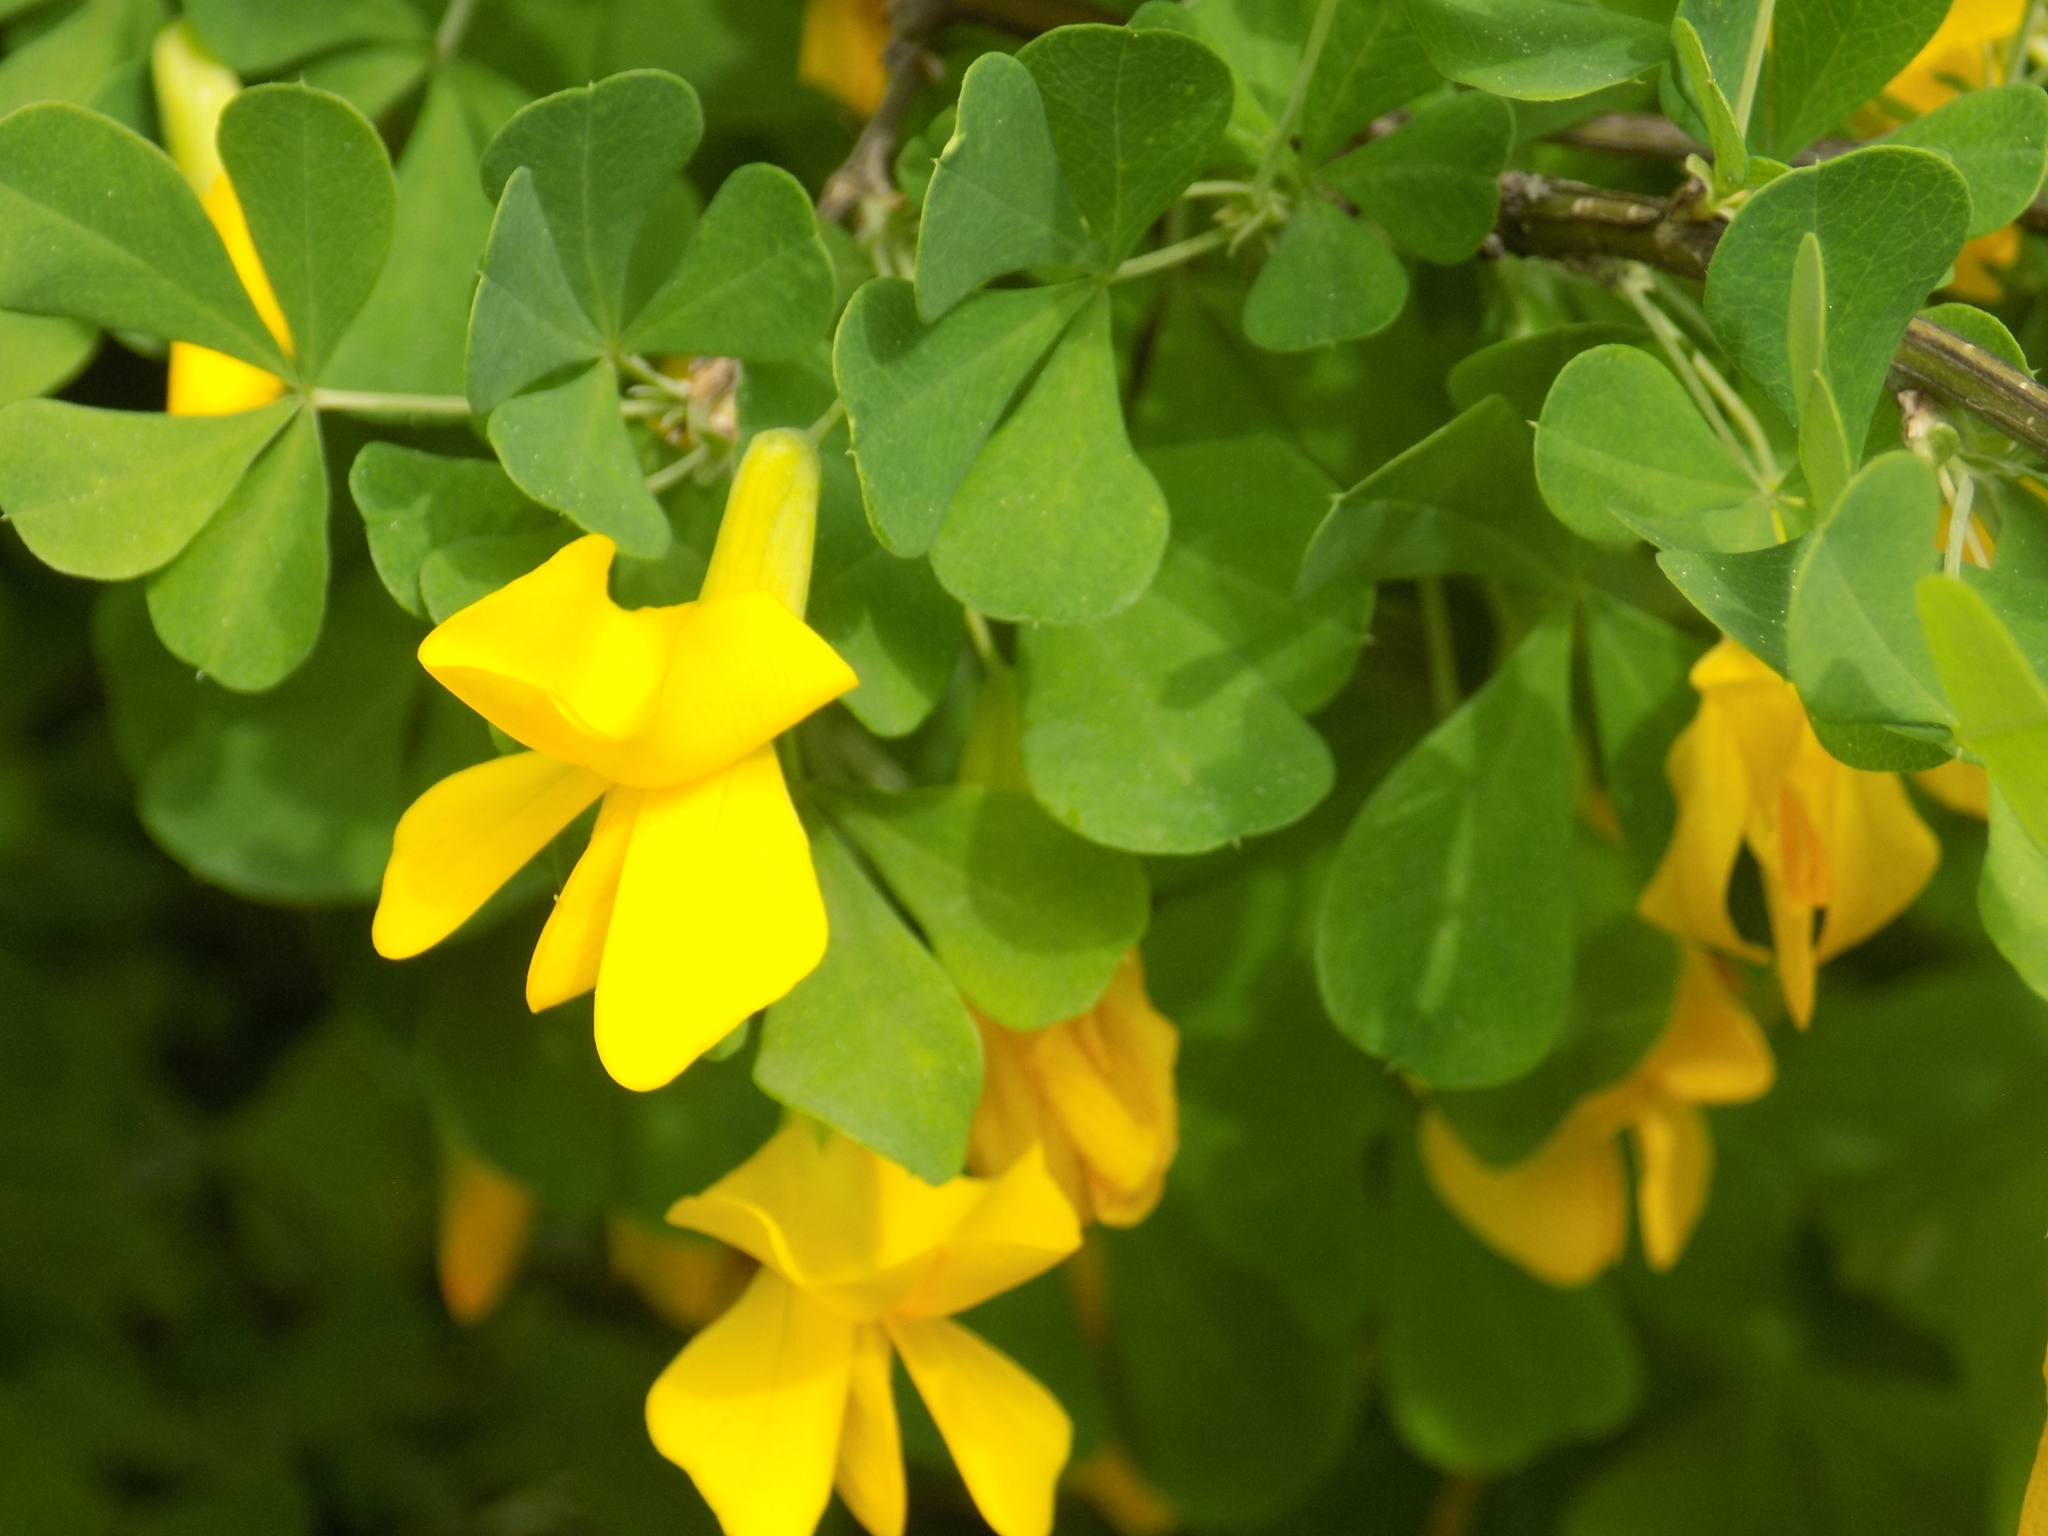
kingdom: Plantae
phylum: Tracheophyta
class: Magnoliopsida
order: Fabales
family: Fabaceae
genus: Caragana
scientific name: Caragana frutex
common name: Russian peashrub
